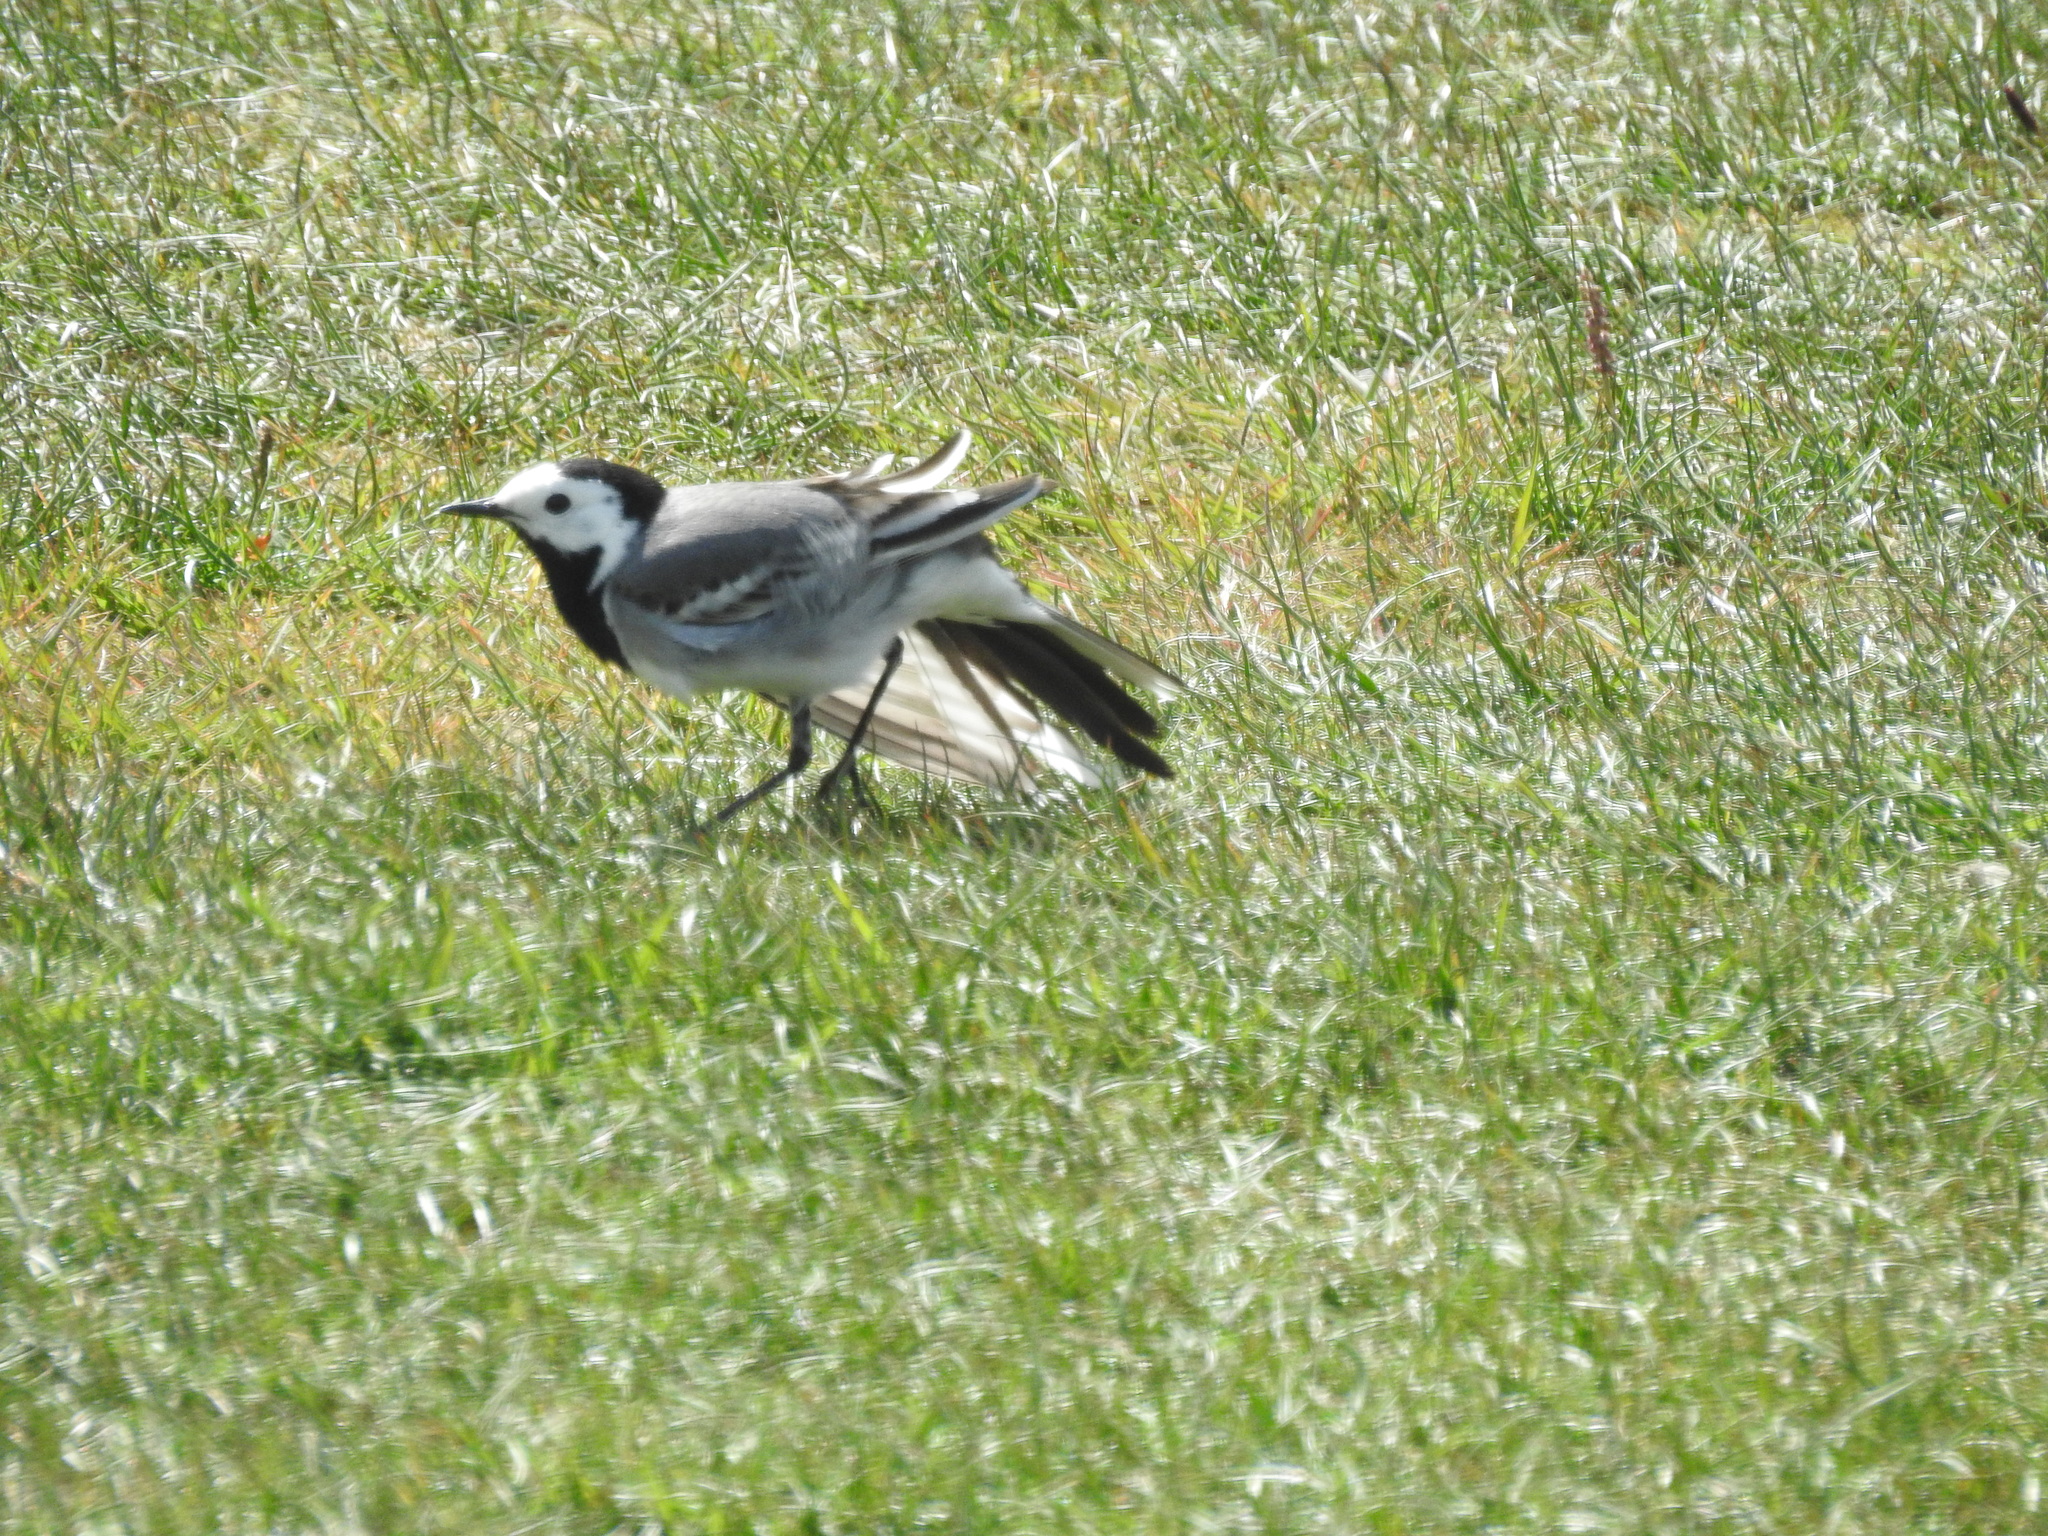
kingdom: Animalia
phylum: Chordata
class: Aves
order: Passeriformes
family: Motacillidae
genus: Motacilla
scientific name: Motacilla alba
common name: White wagtail
